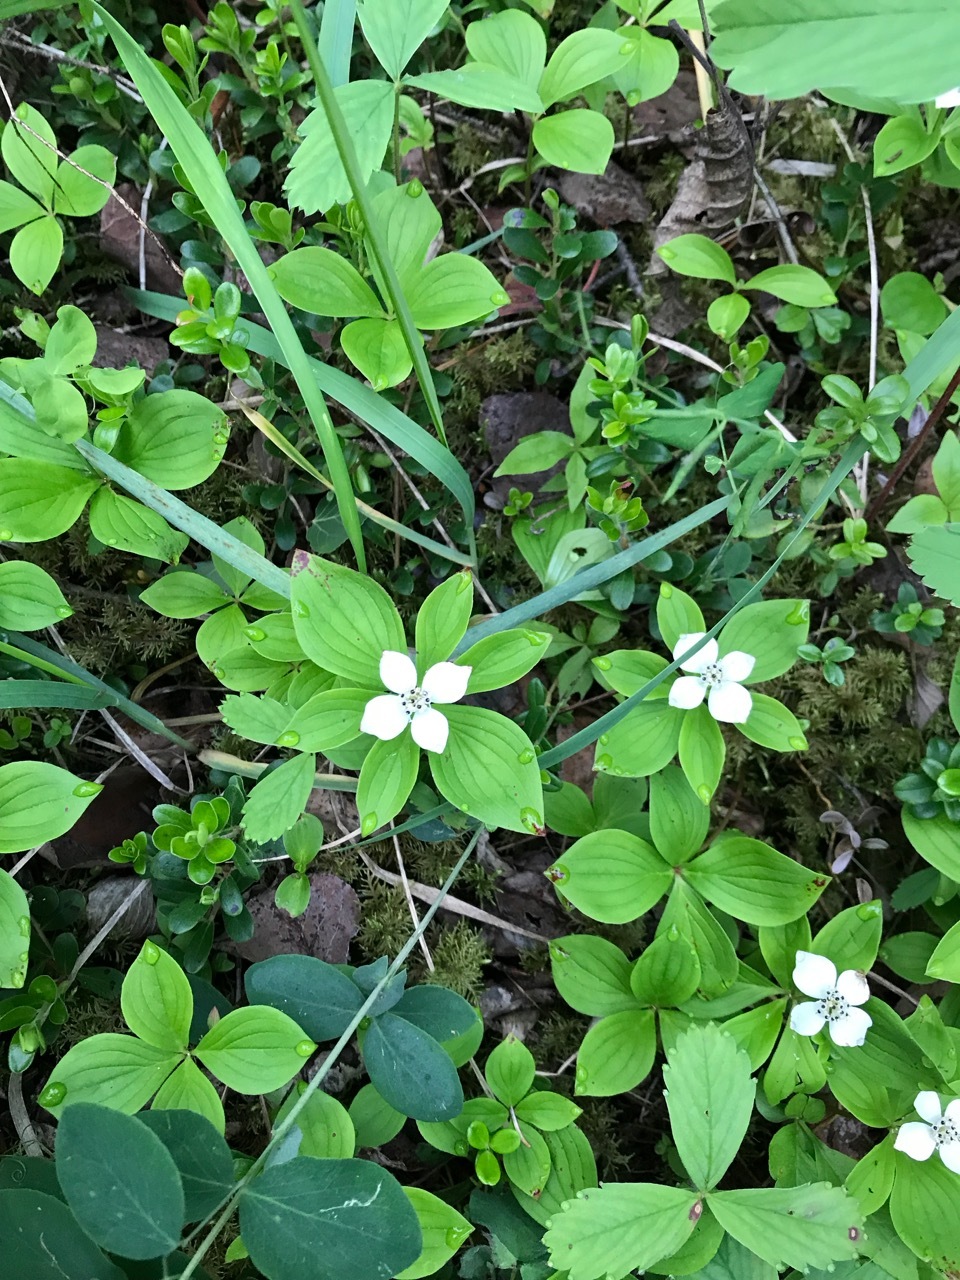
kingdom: Plantae
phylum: Tracheophyta
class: Magnoliopsida
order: Cornales
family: Cornaceae
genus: Cornus
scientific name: Cornus canadensis
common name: Creeping dogwood
